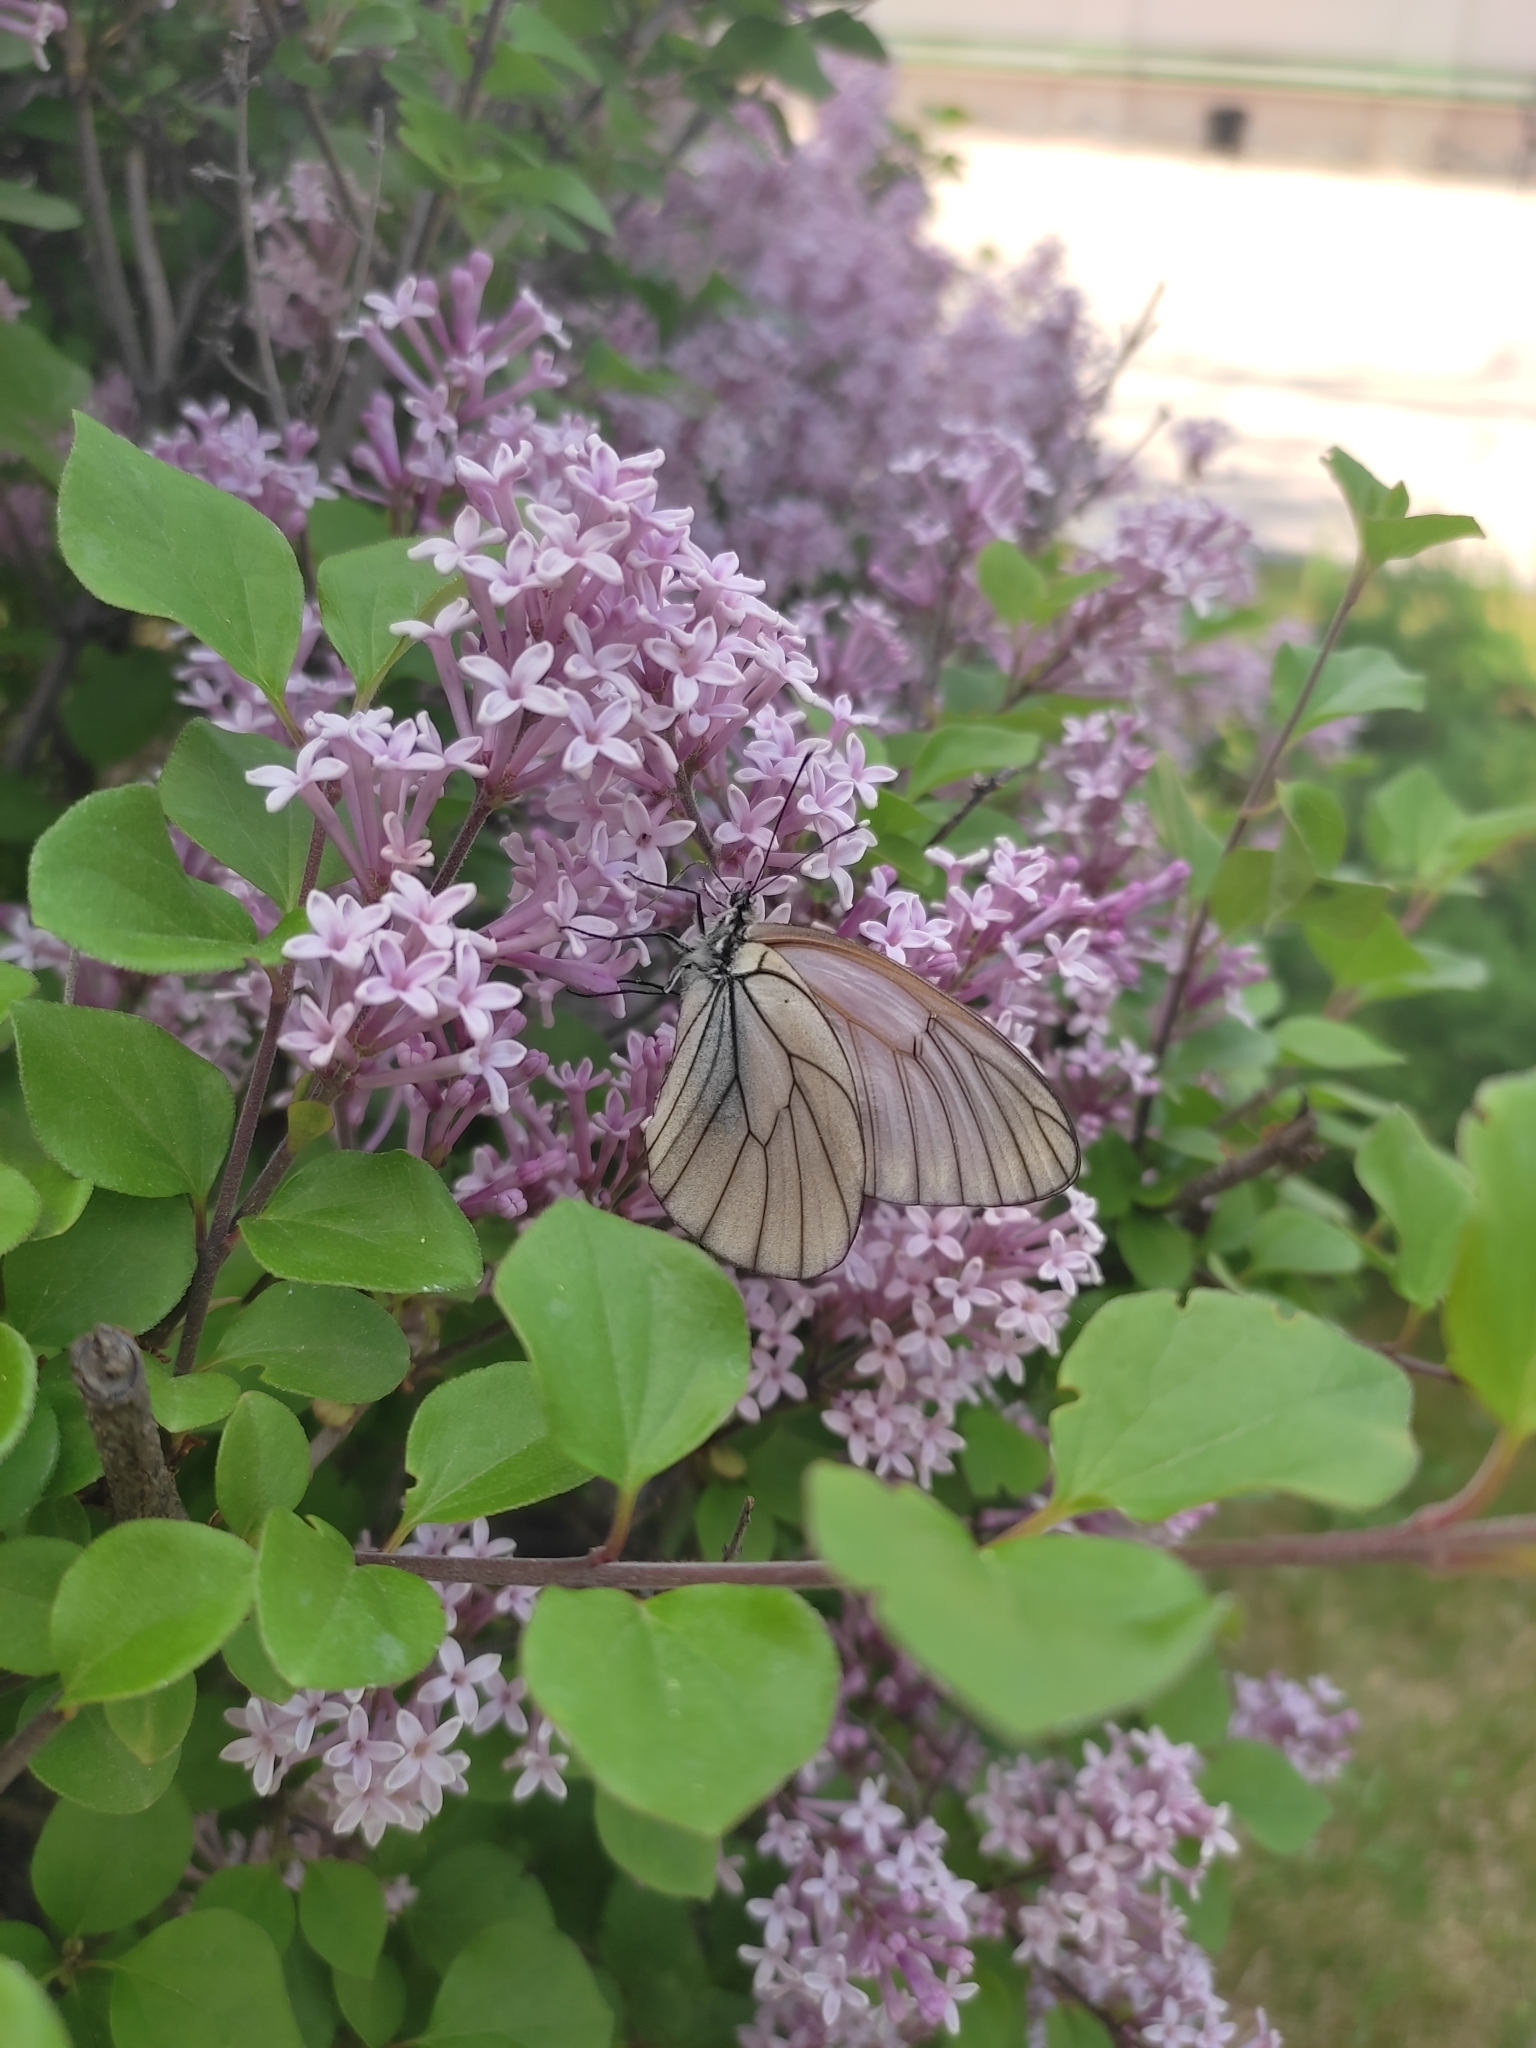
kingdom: Animalia
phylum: Arthropoda
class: Insecta
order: Lepidoptera
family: Pieridae
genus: Aporia
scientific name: Aporia crataegi
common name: Black-veined white
